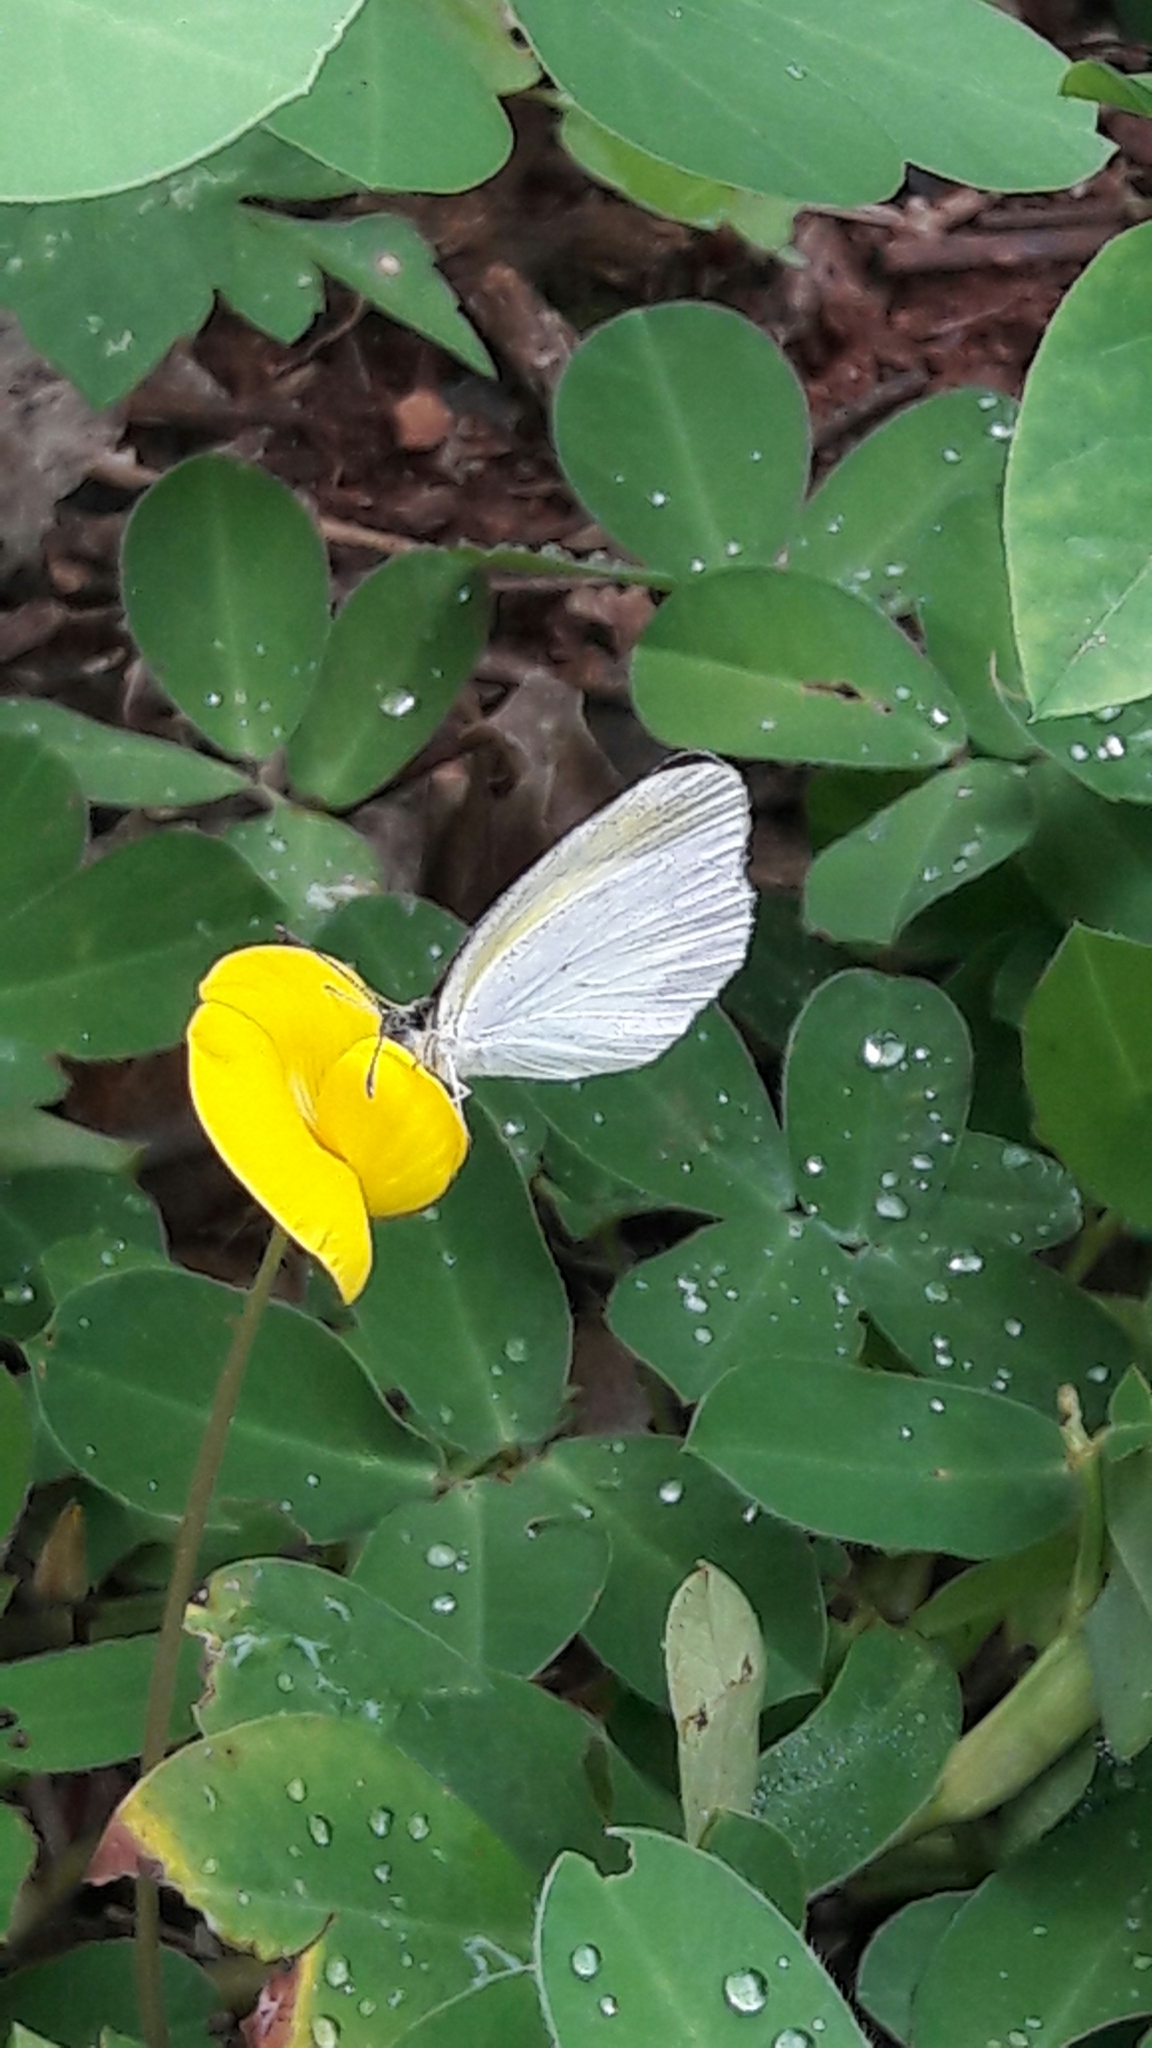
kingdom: Animalia
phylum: Arthropoda
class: Insecta
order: Lepidoptera
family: Pieridae
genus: Eurema
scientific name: Eurema elathea
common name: Banded yellow
